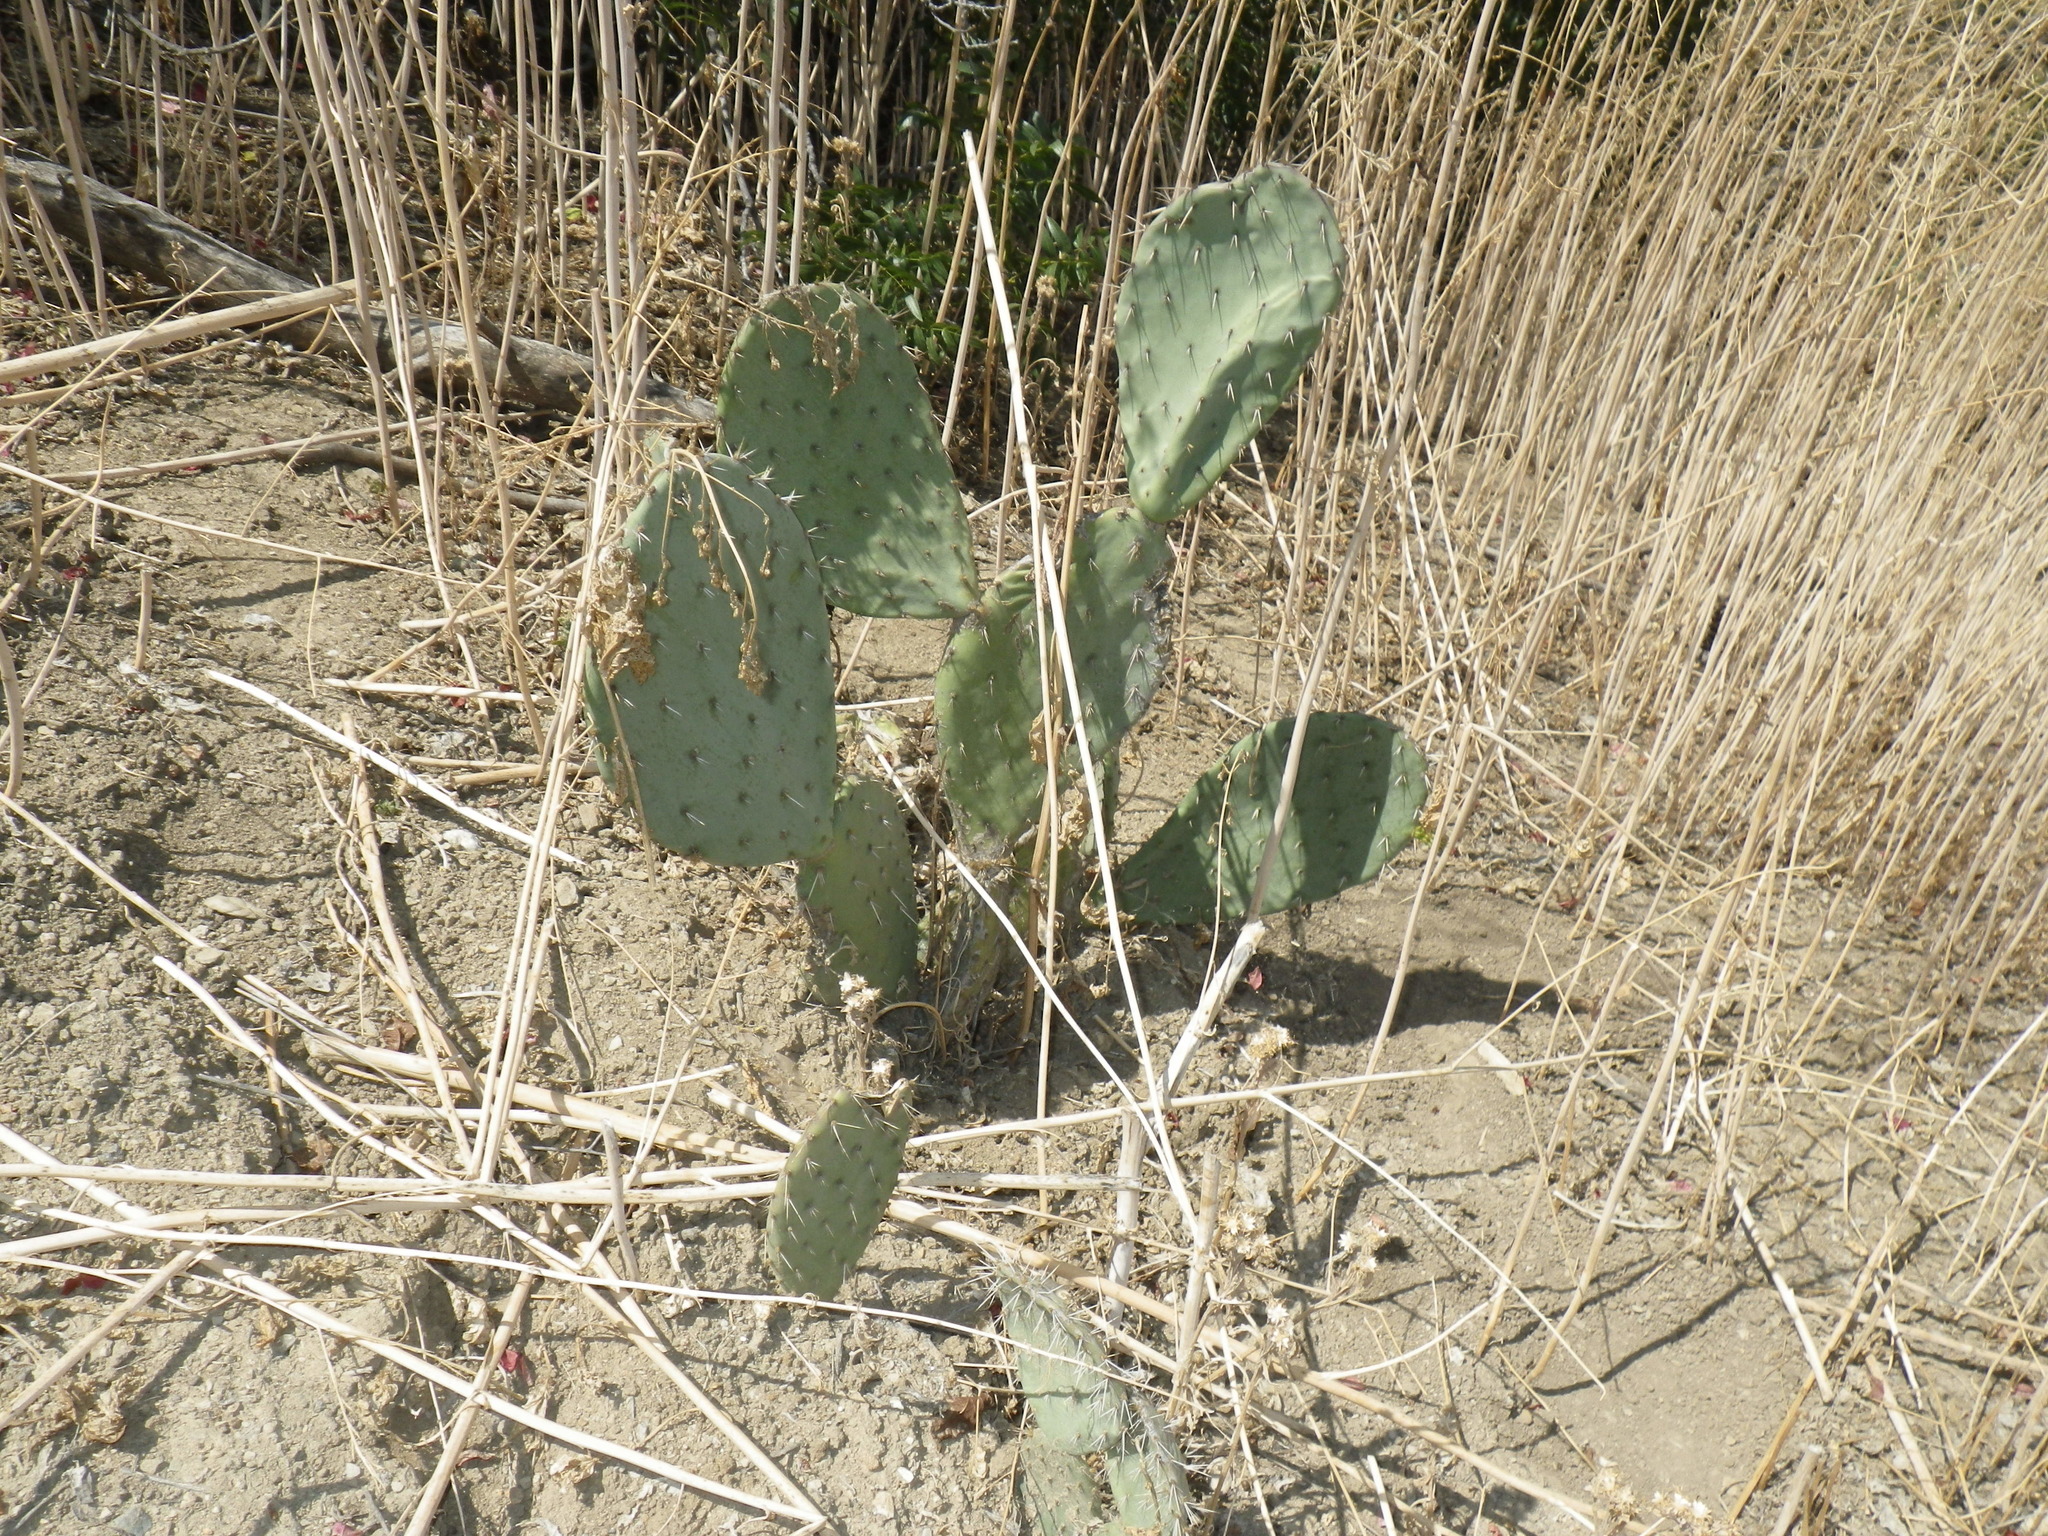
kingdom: Plantae
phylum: Tracheophyta
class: Magnoliopsida
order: Caryophyllales
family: Cactaceae
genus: Opuntia
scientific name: Opuntia littoralis
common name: Coastal prickly-pear
